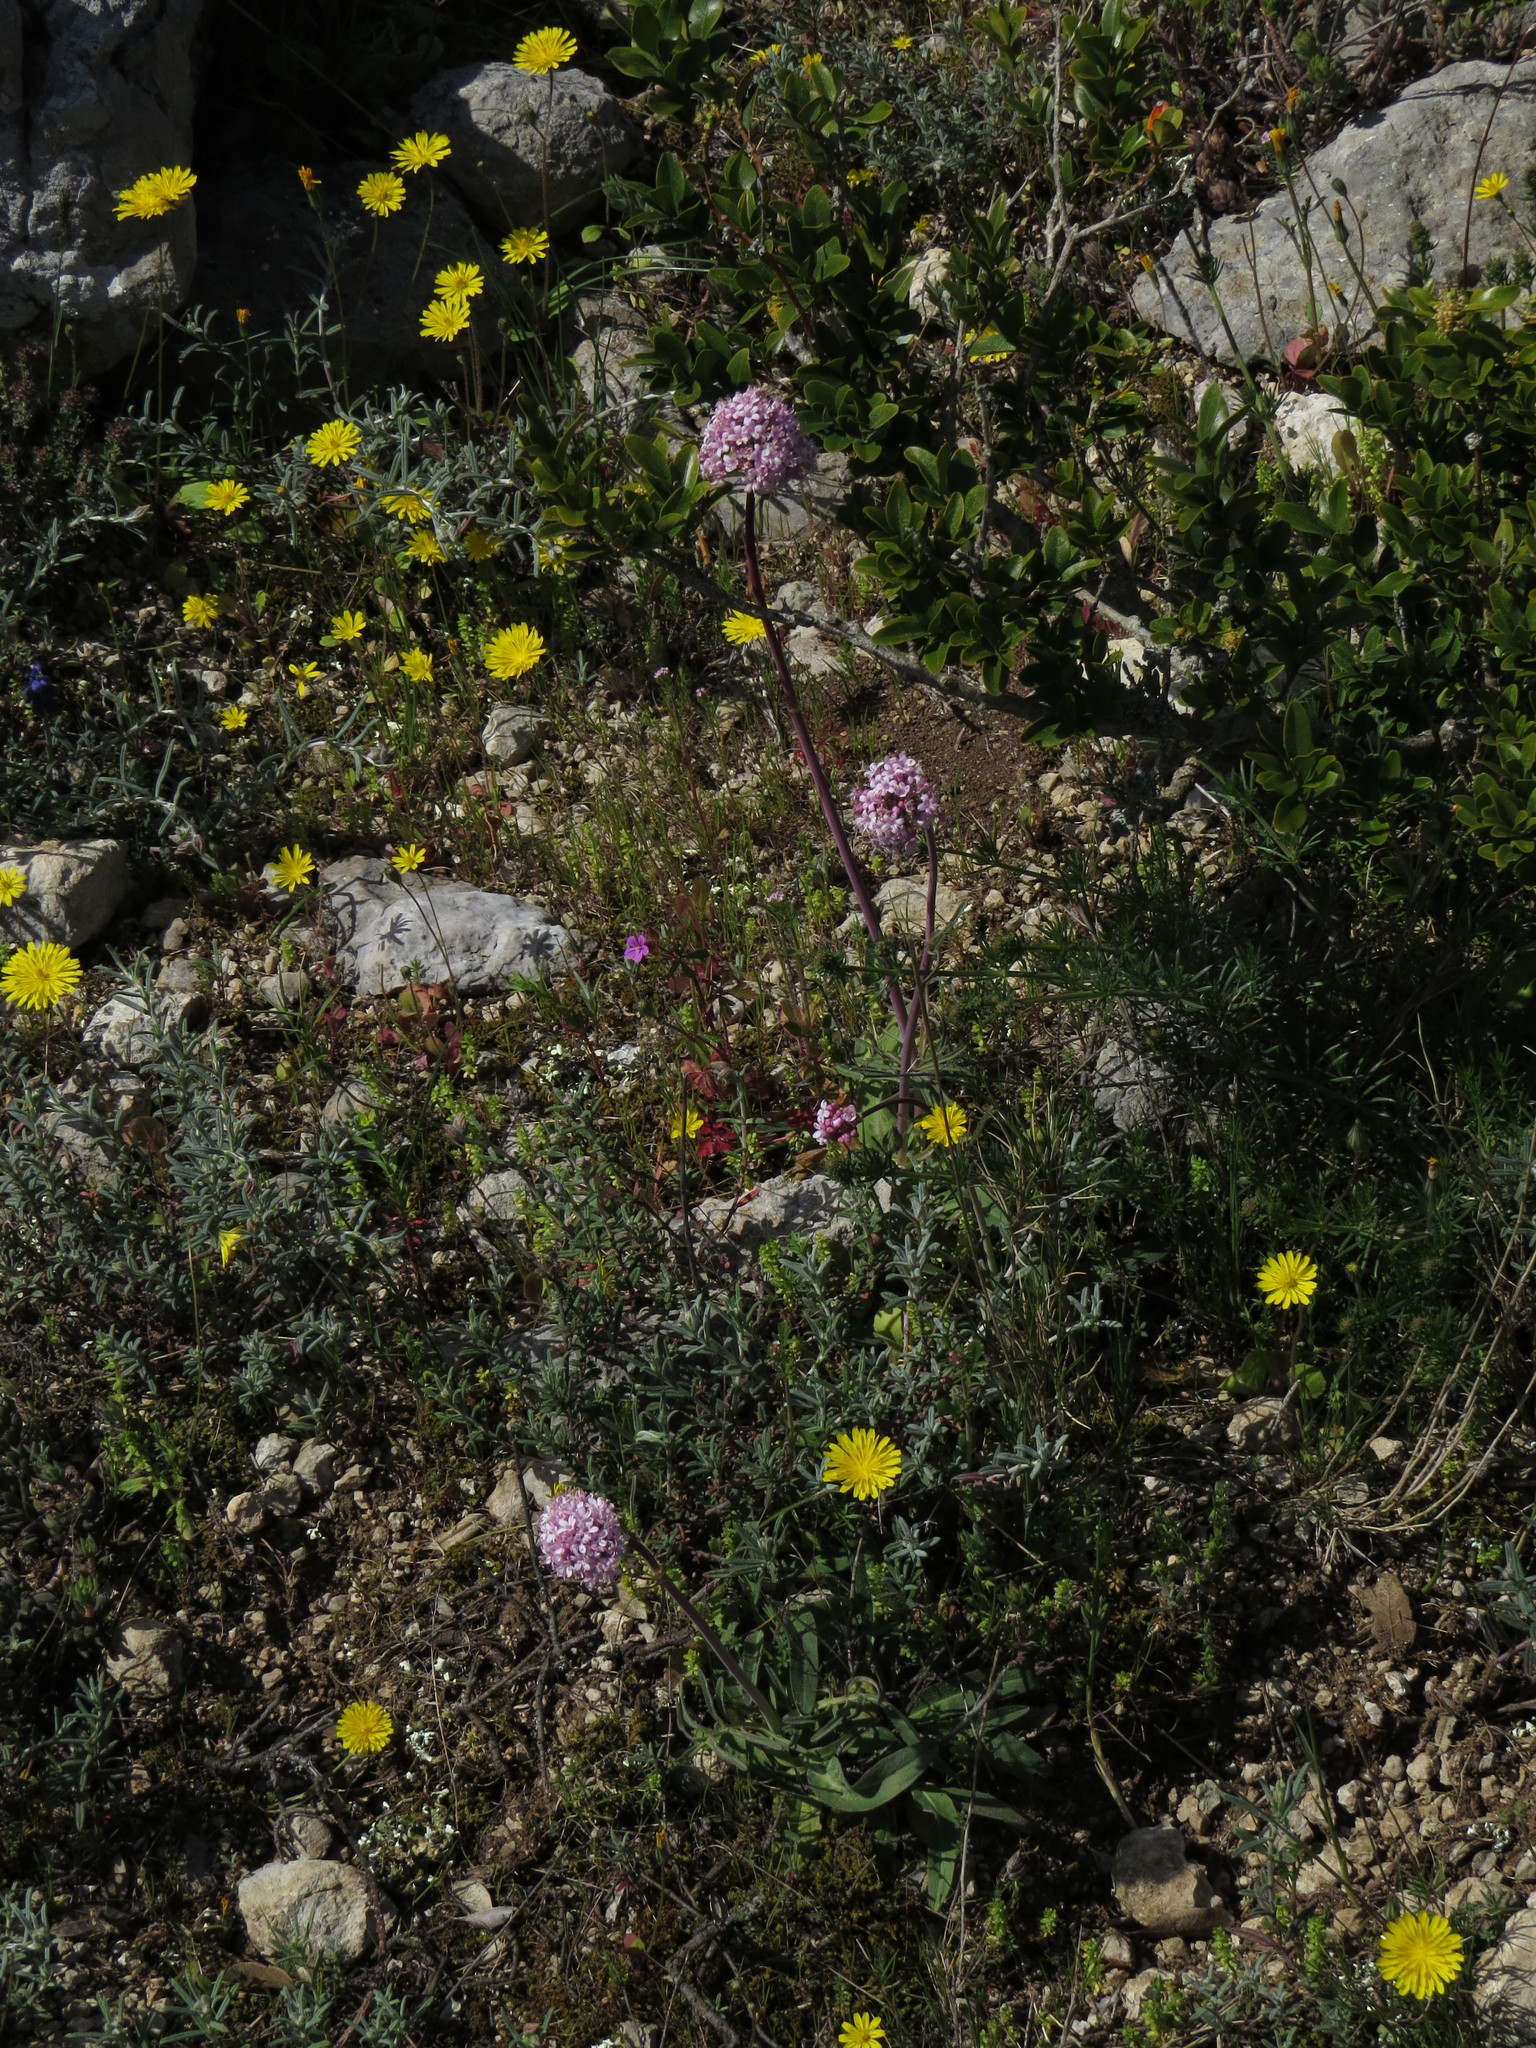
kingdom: Plantae
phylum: Tracheophyta
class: Magnoliopsida
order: Dipsacales
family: Caprifoliaceae
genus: Valeriana
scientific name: Valeriana tuberosa
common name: Tuberous valerian
